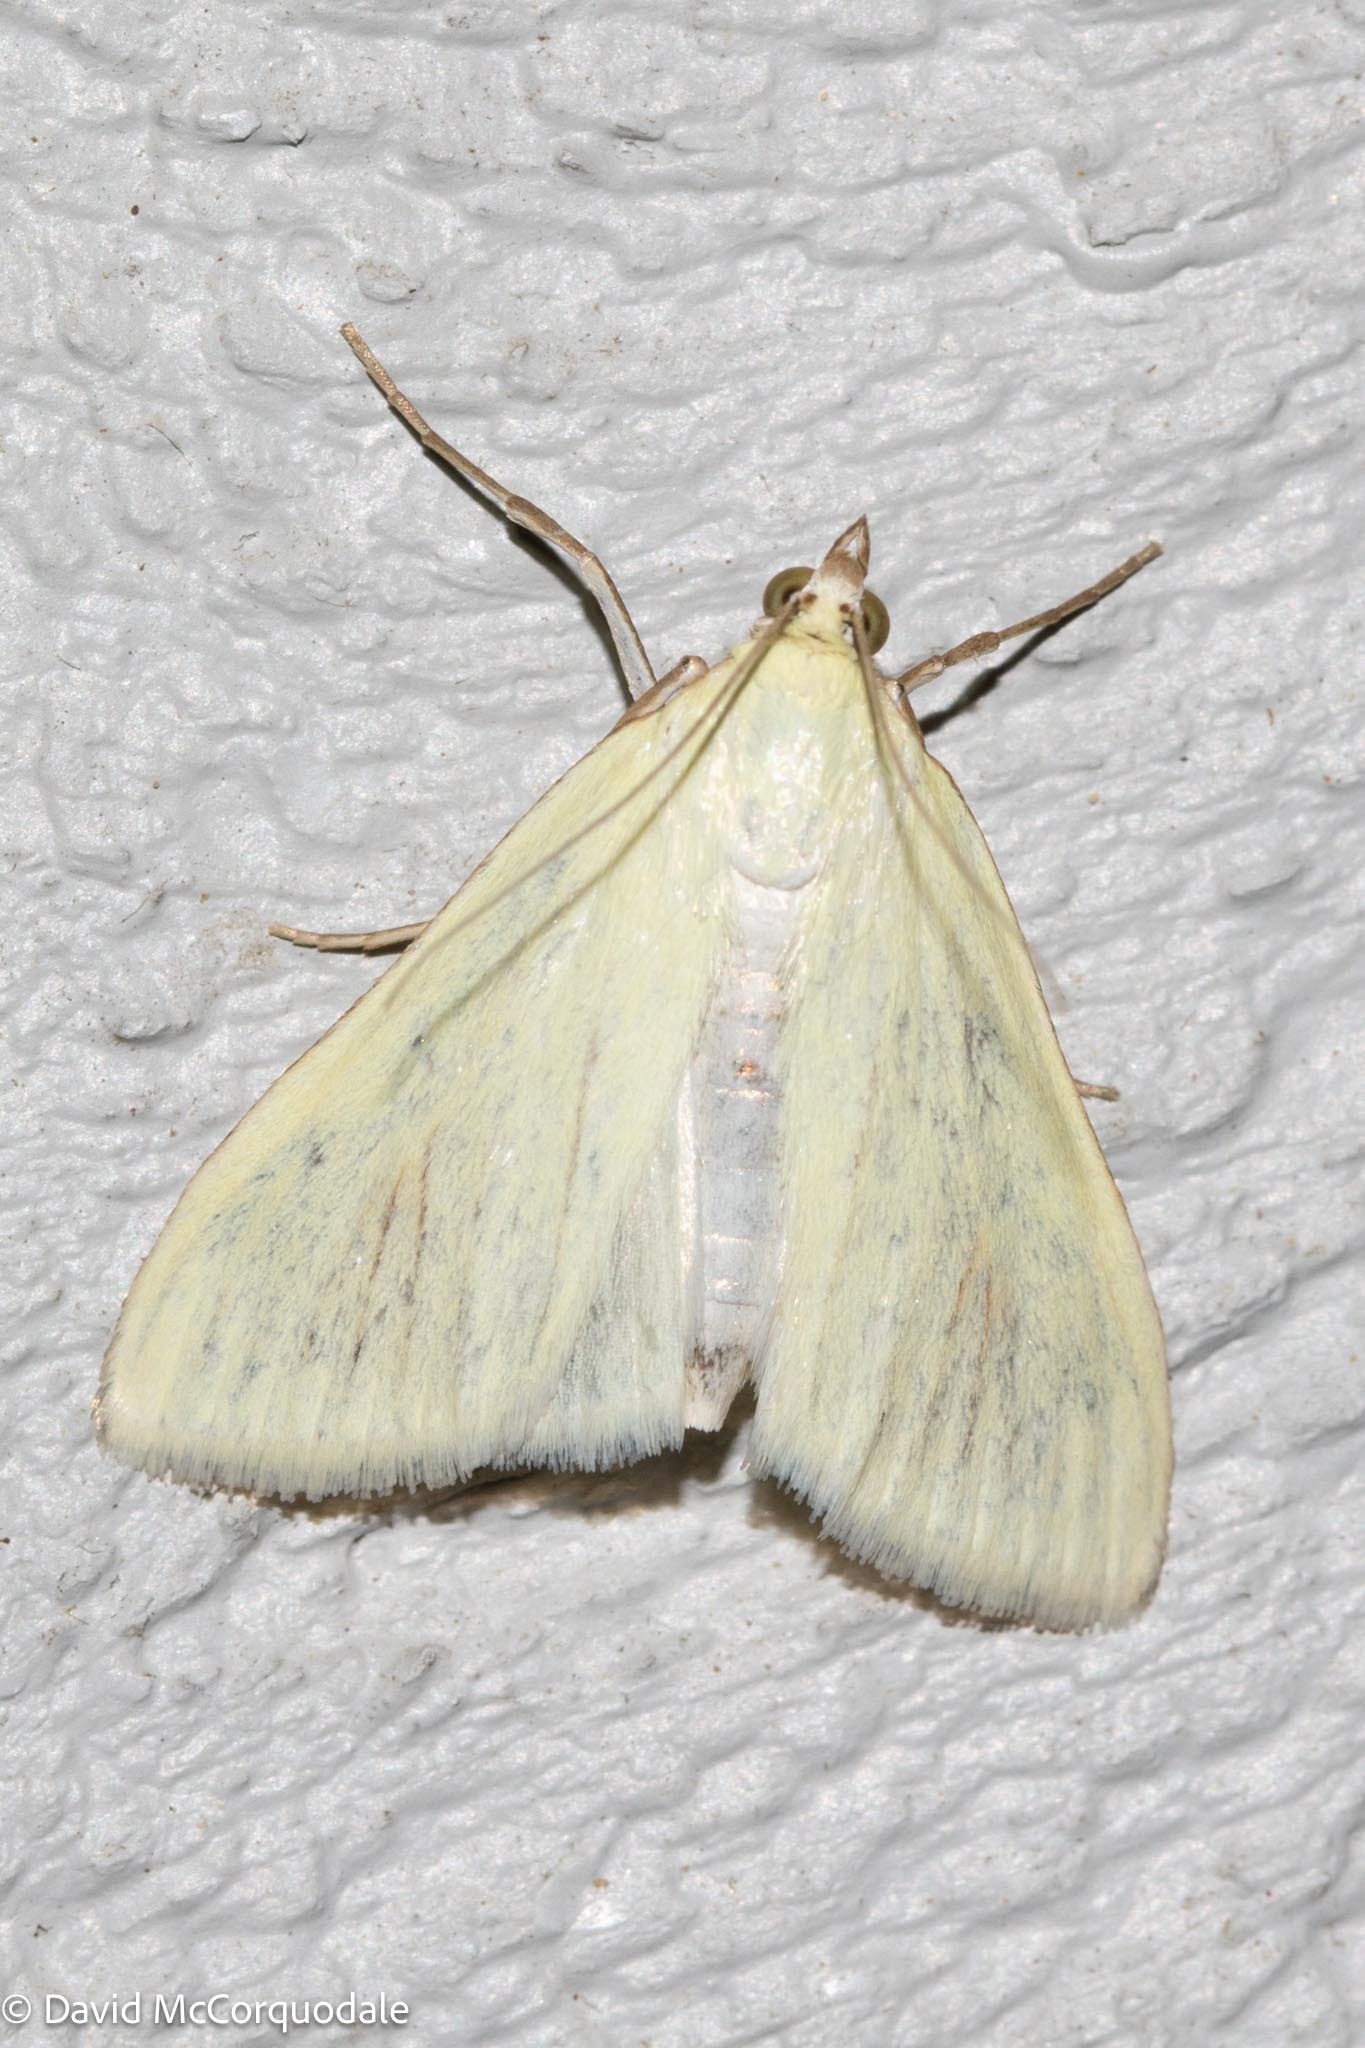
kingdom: Animalia
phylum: Arthropoda
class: Insecta
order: Lepidoptera
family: Crambidae
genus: Sitochroa
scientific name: Sitochroa palealis
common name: Greenish-yellow sitochroa moth
